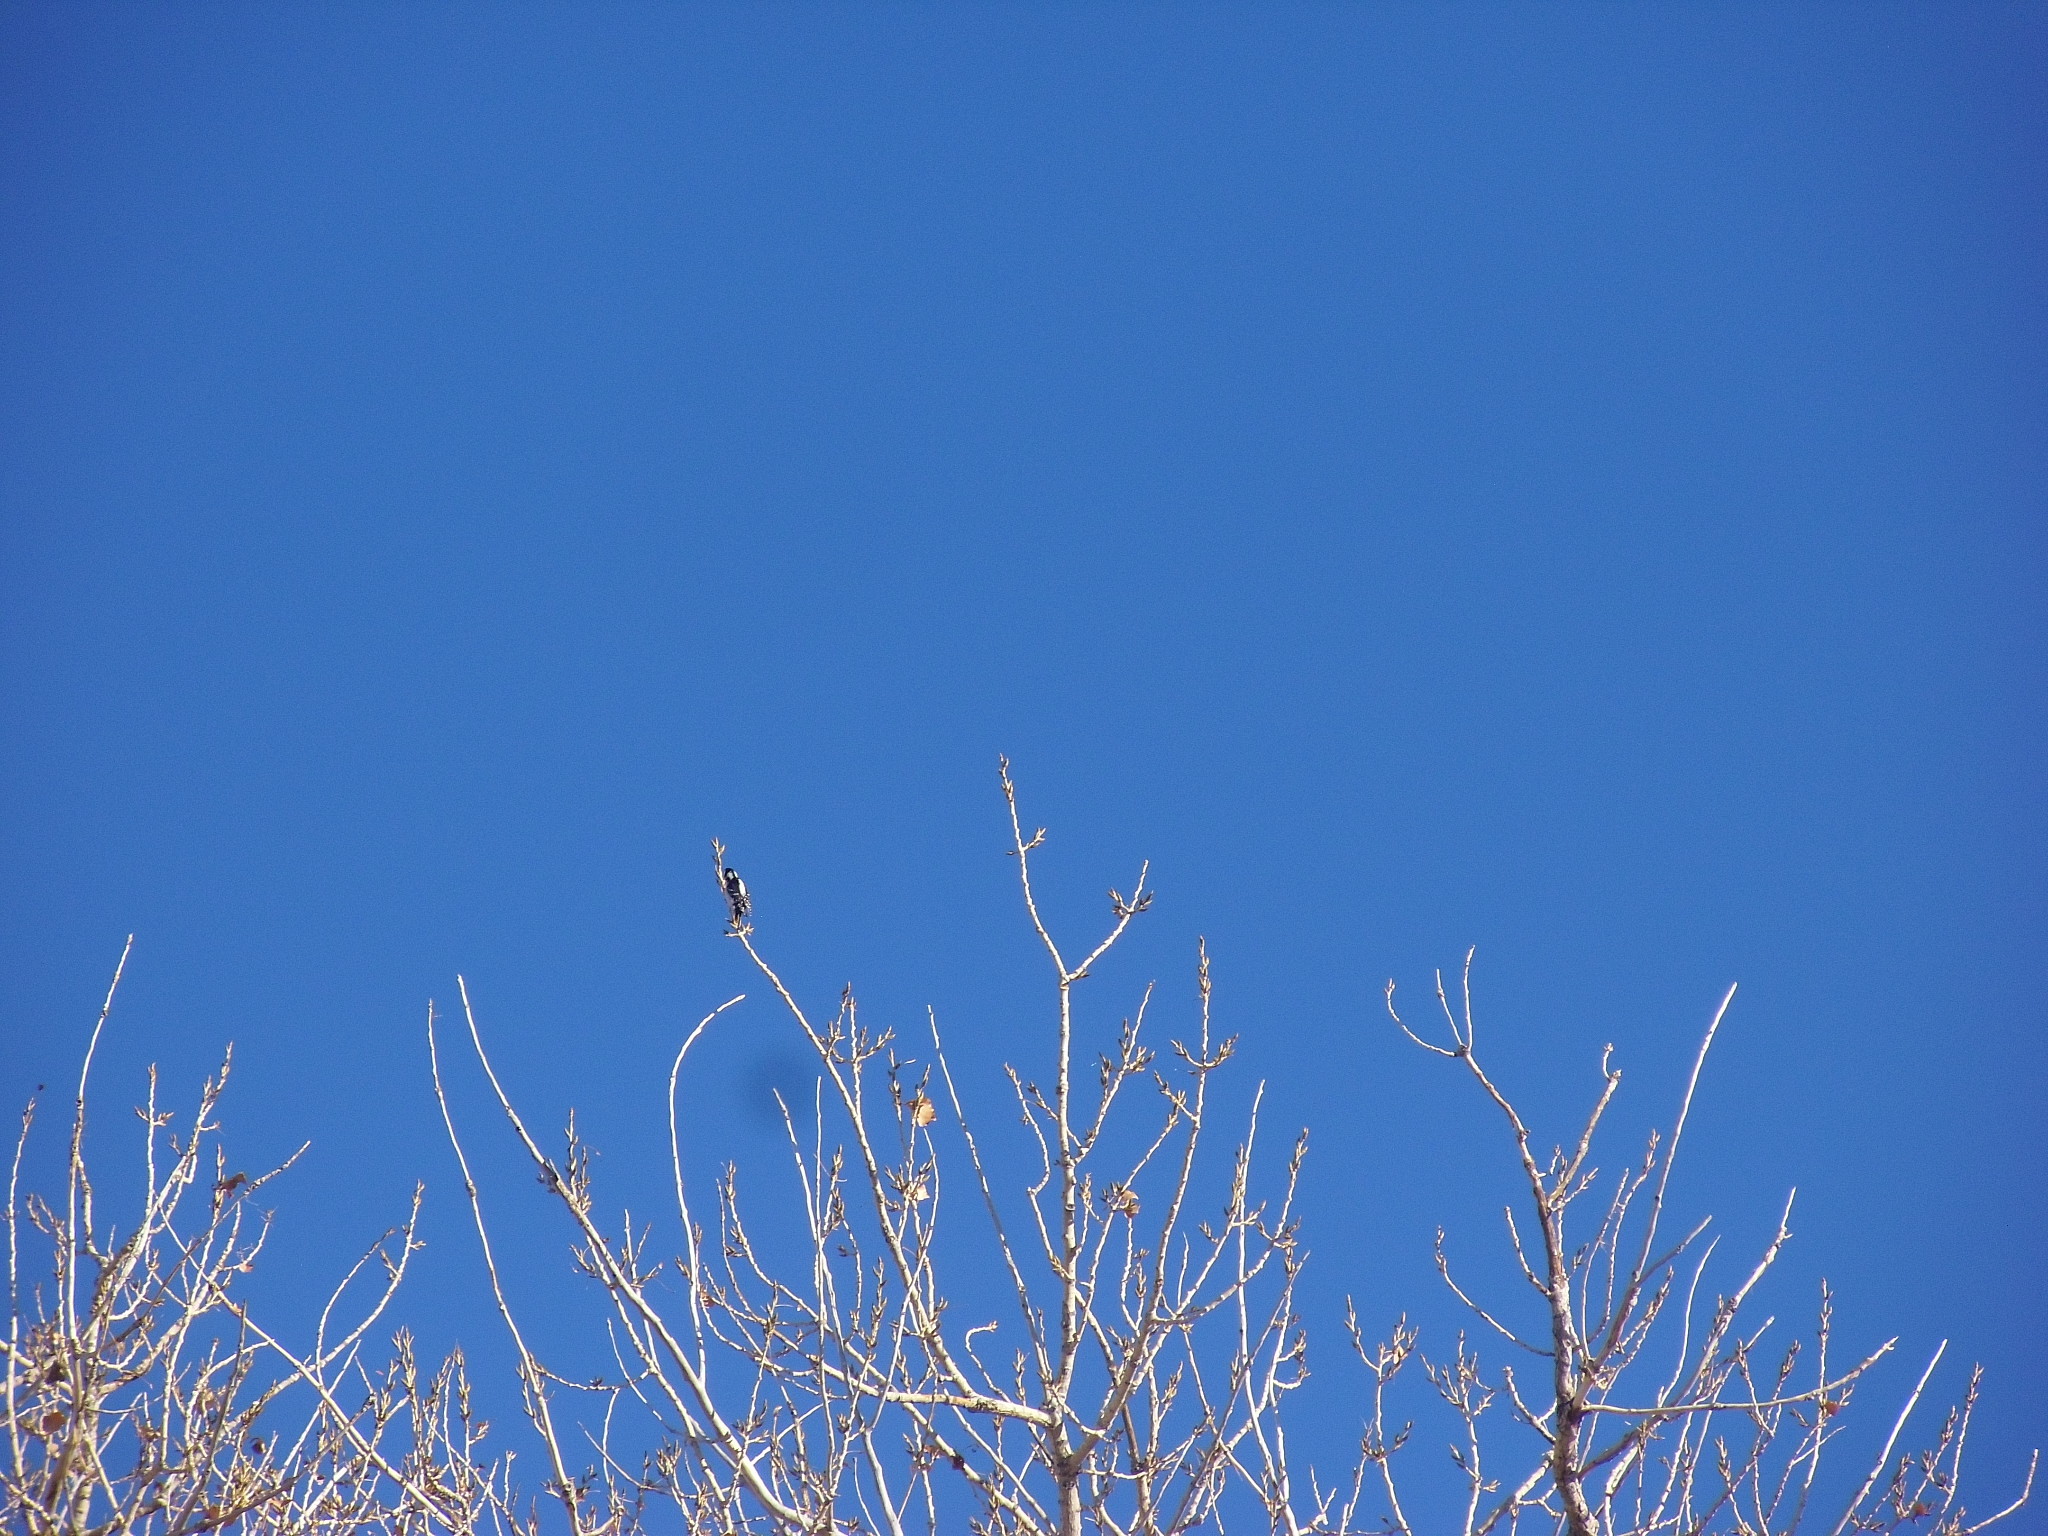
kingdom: Animalia
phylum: Chordata
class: Aves
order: Piciformes
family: Picidae
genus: Dryobates
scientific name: Dryobates pubescens
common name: Downy woodpecker
